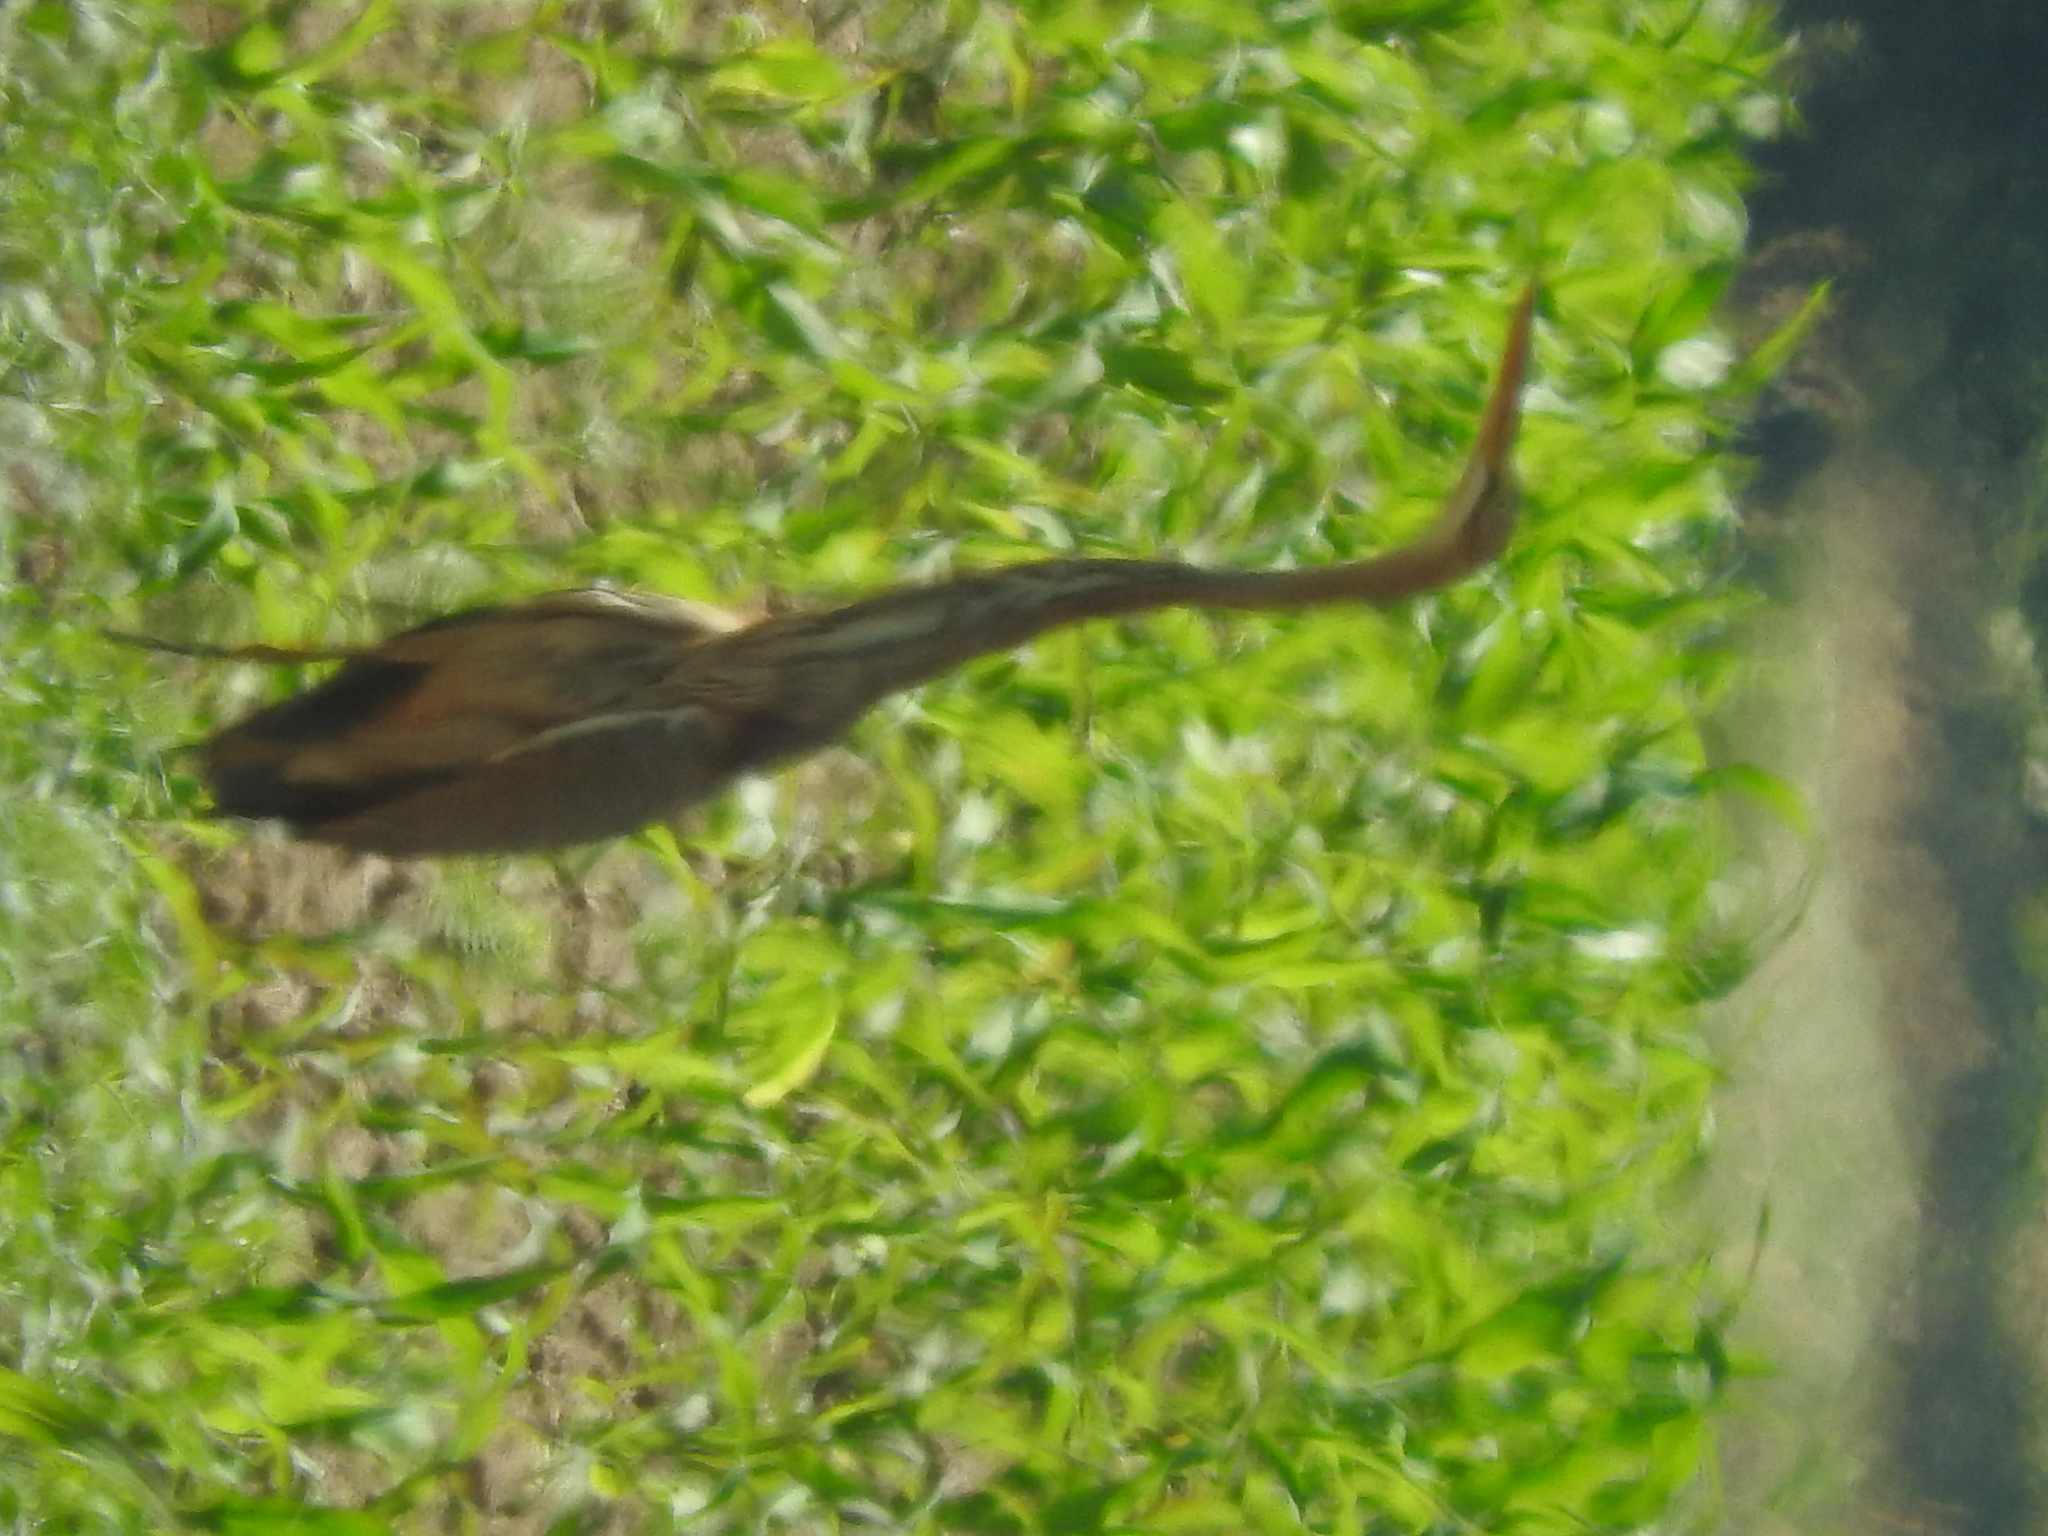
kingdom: Animalia
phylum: Chordata
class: Aves
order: Pelecaniformes
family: Ardeidae
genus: Ardea
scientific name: Ardea purpurea
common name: Purple heron
